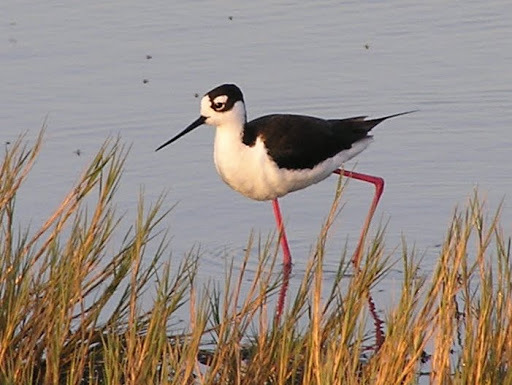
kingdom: Animalia
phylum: Chordata
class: Aves
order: Charadriiformes
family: Recurvirostridae
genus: Himantopus
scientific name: Himantopus mexicanus
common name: Black-necked stilt
